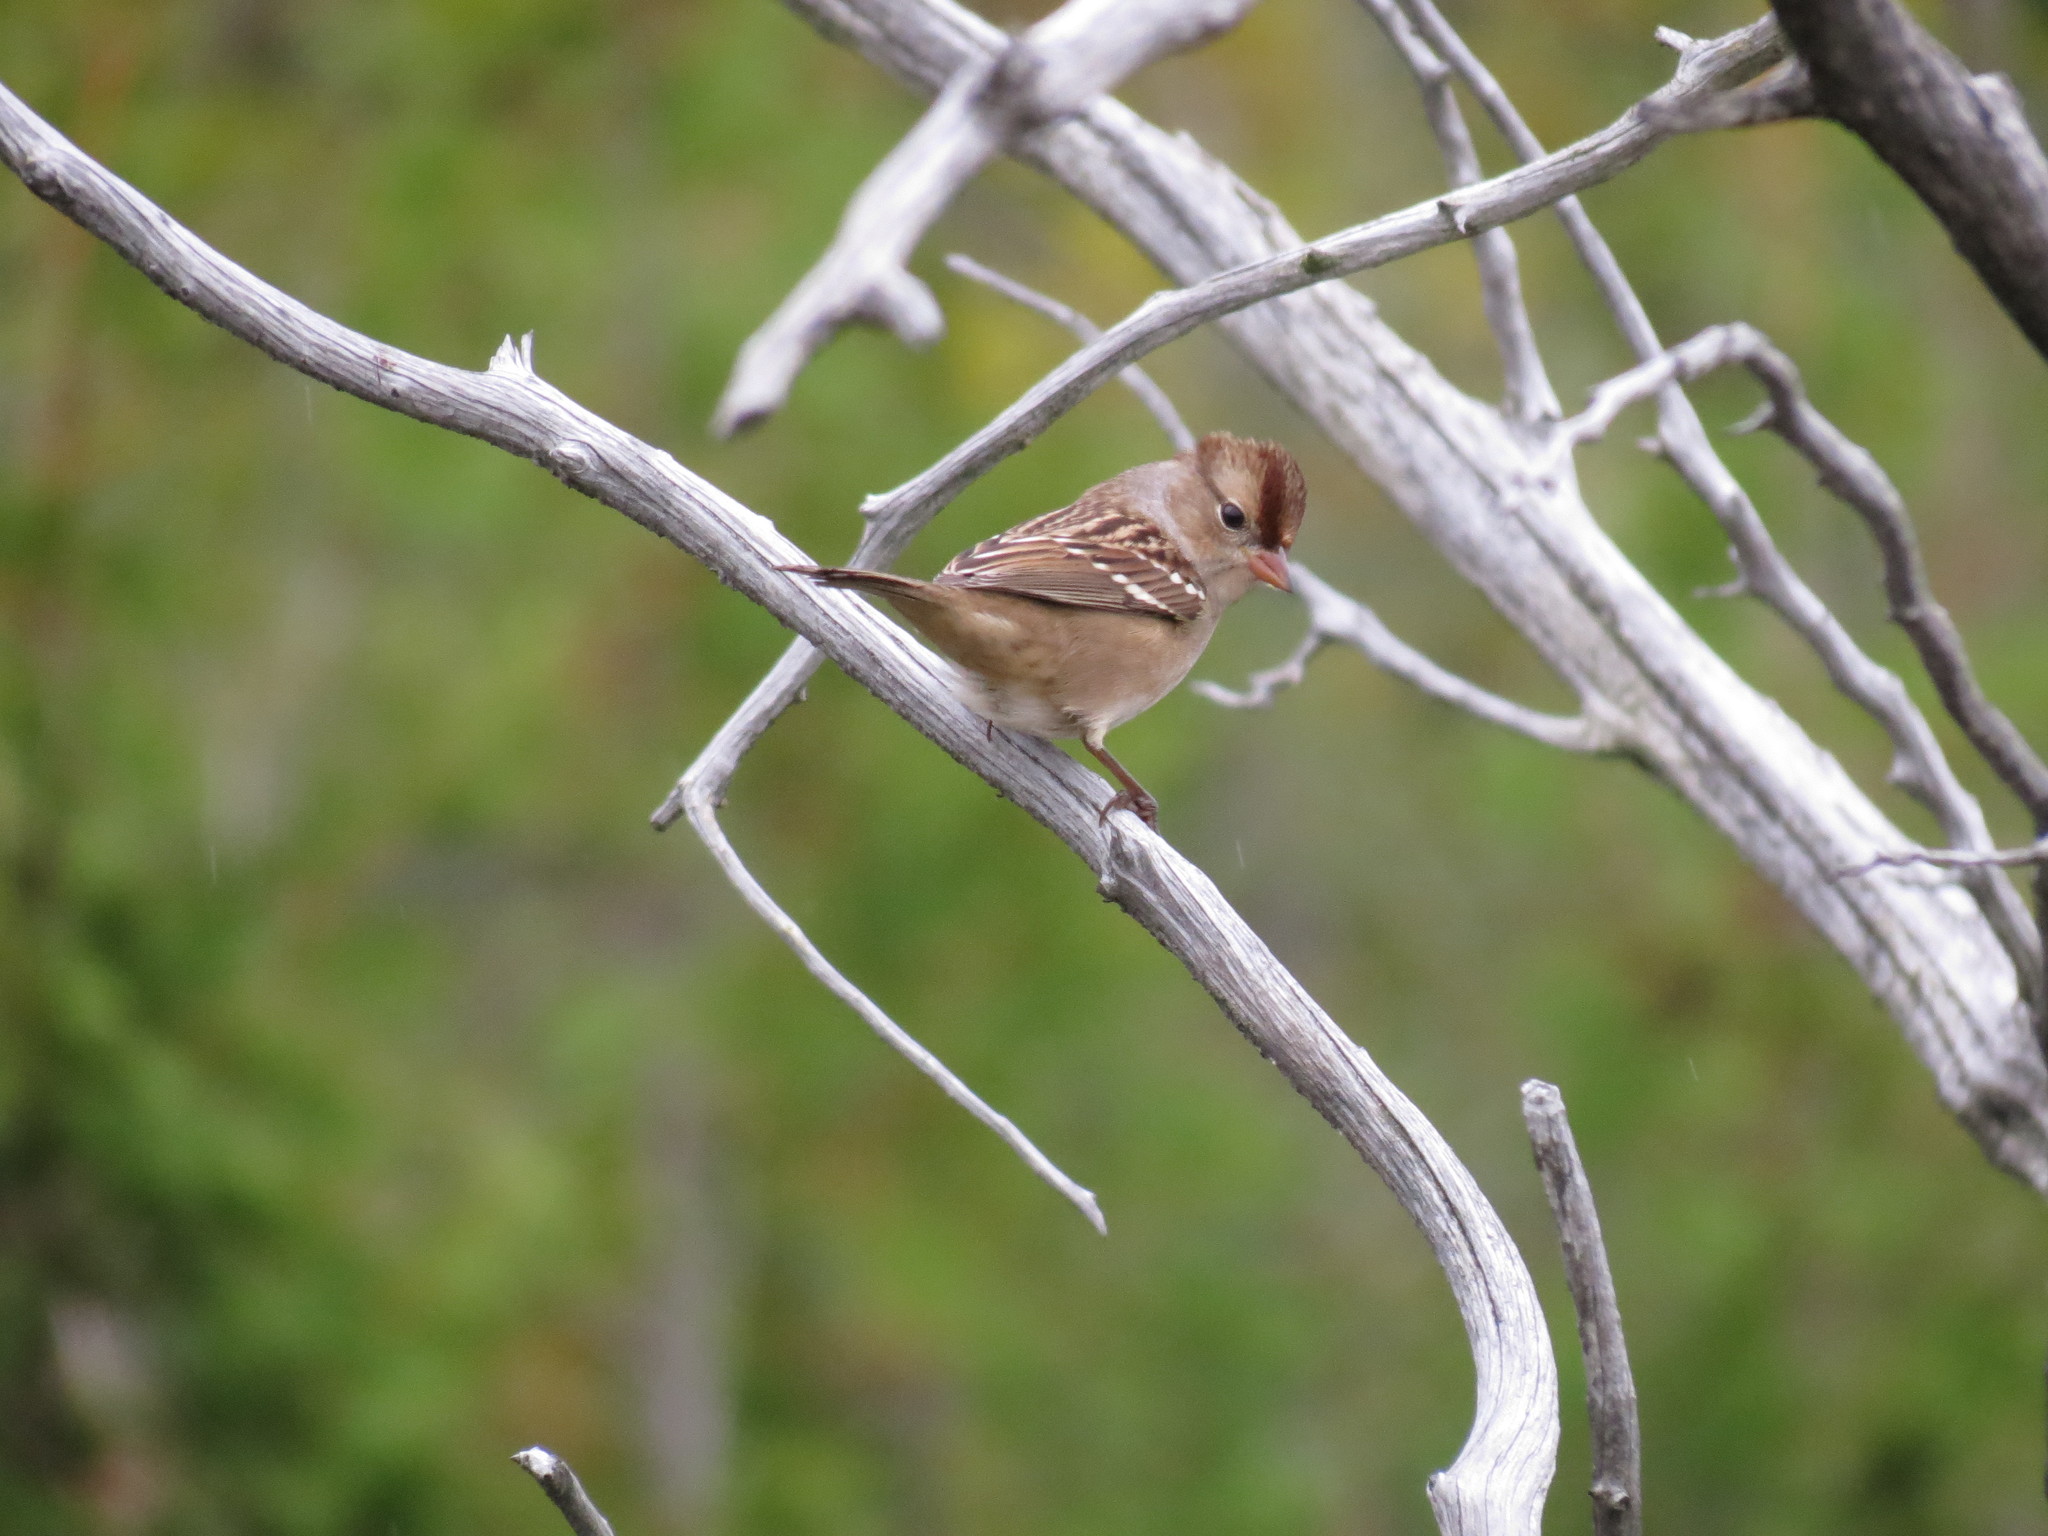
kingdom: Animalia
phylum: Chordata
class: Aves
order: Passeriformes
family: Passerellidae
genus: Zonotrichia
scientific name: Zonotrichia leucophrys
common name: White-crowned sparrow
